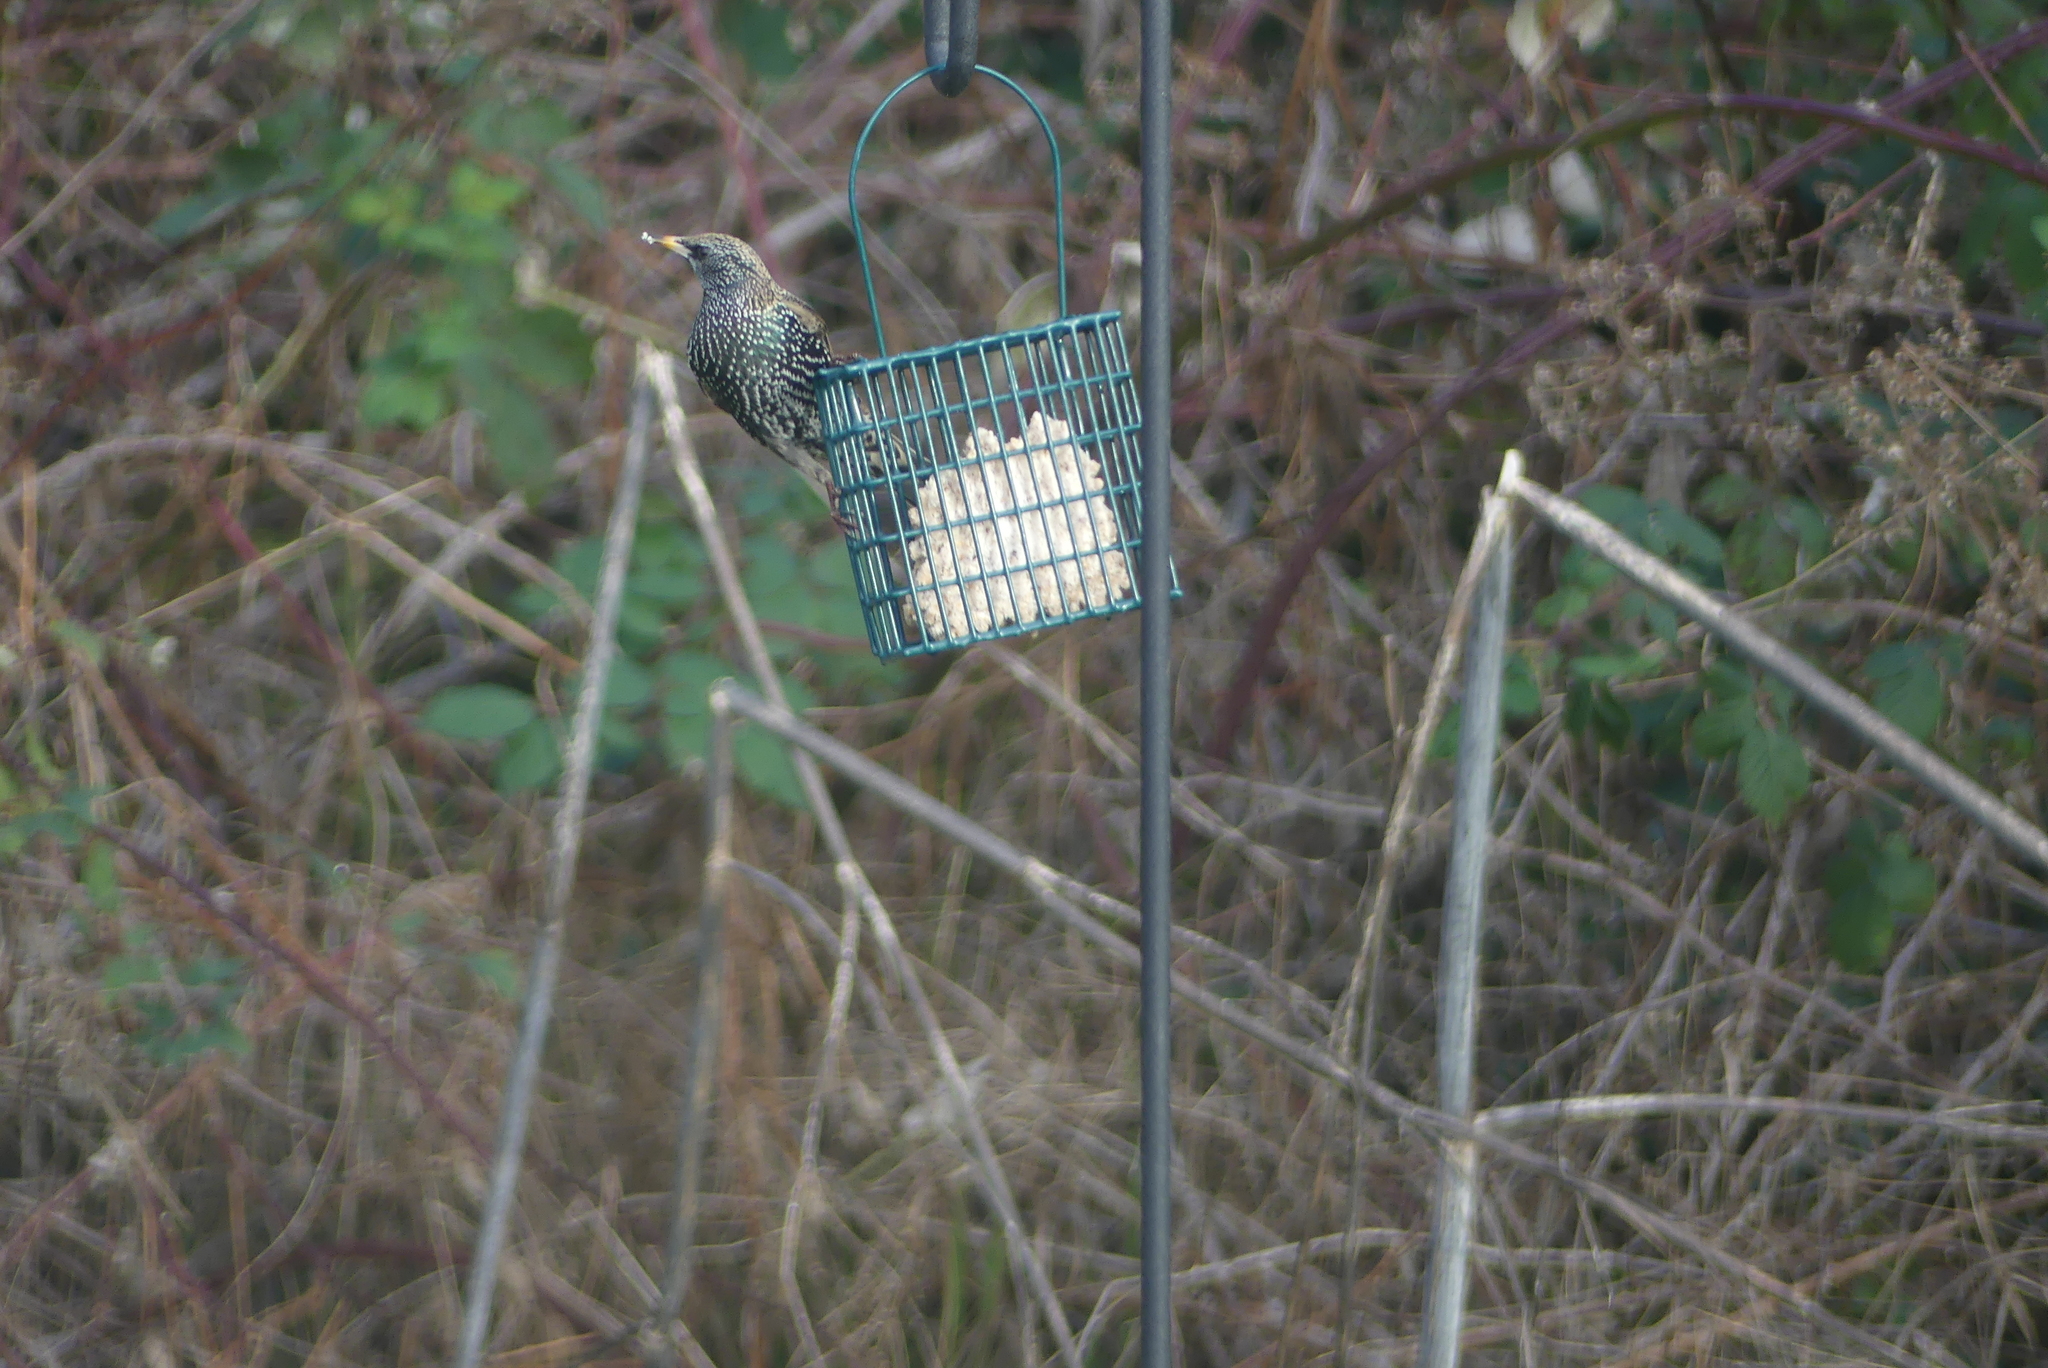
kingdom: Animalia
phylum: Chordata
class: Aves
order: Passeriformes
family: Sturnidae
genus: Sturnus
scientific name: Sturnus vulgaris
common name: Common starling
